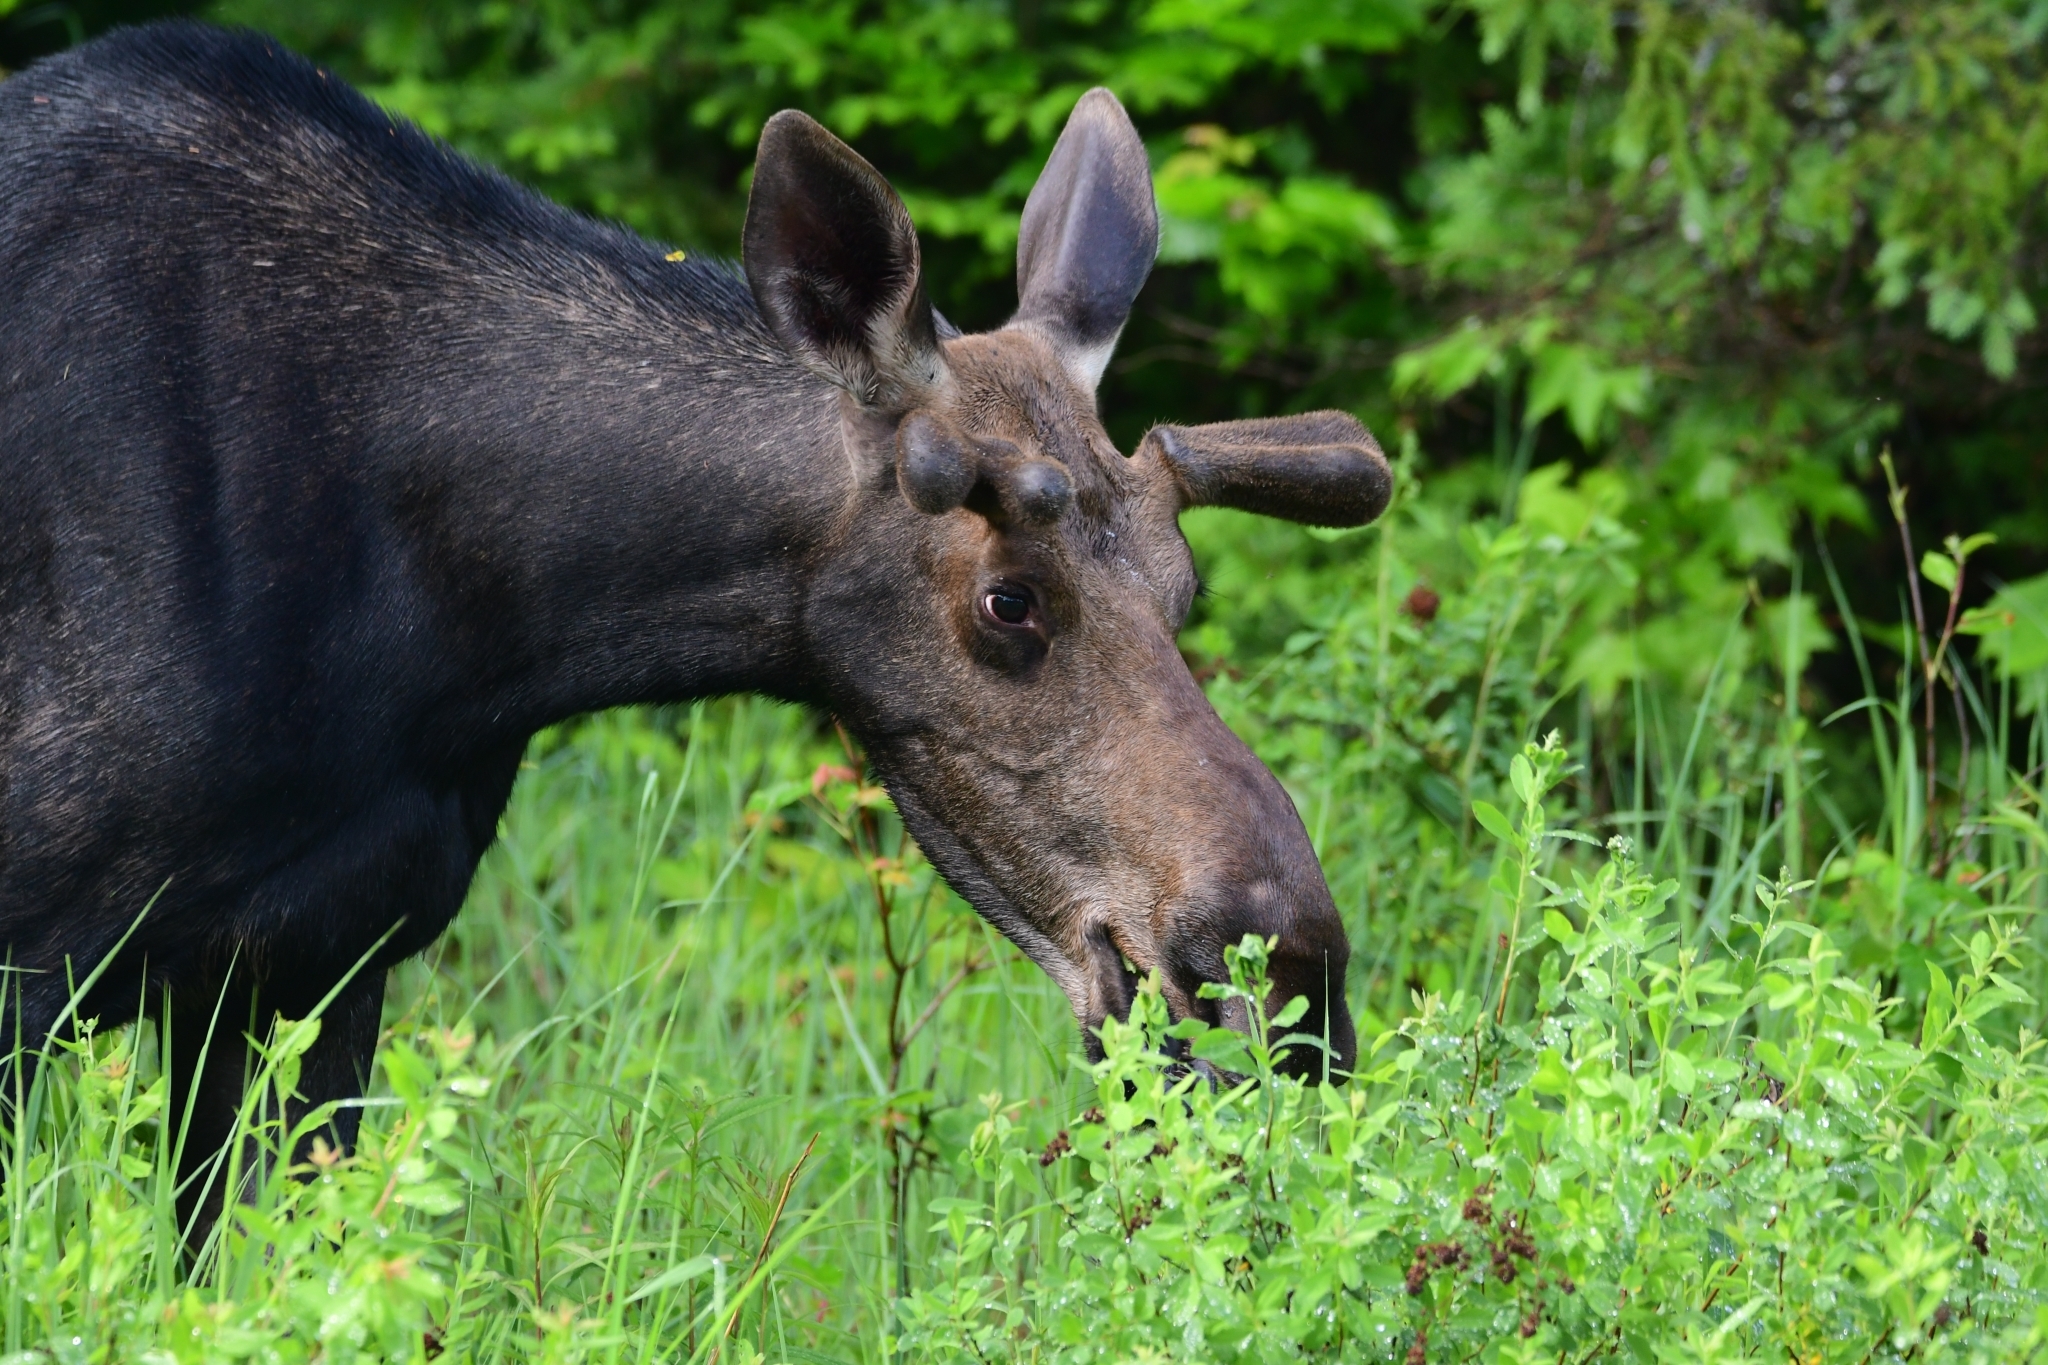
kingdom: Animalia
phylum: Chordata
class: Mammalia
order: Artiodactyla
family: Cervidae
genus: Alces
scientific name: Alces alces
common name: Moose
